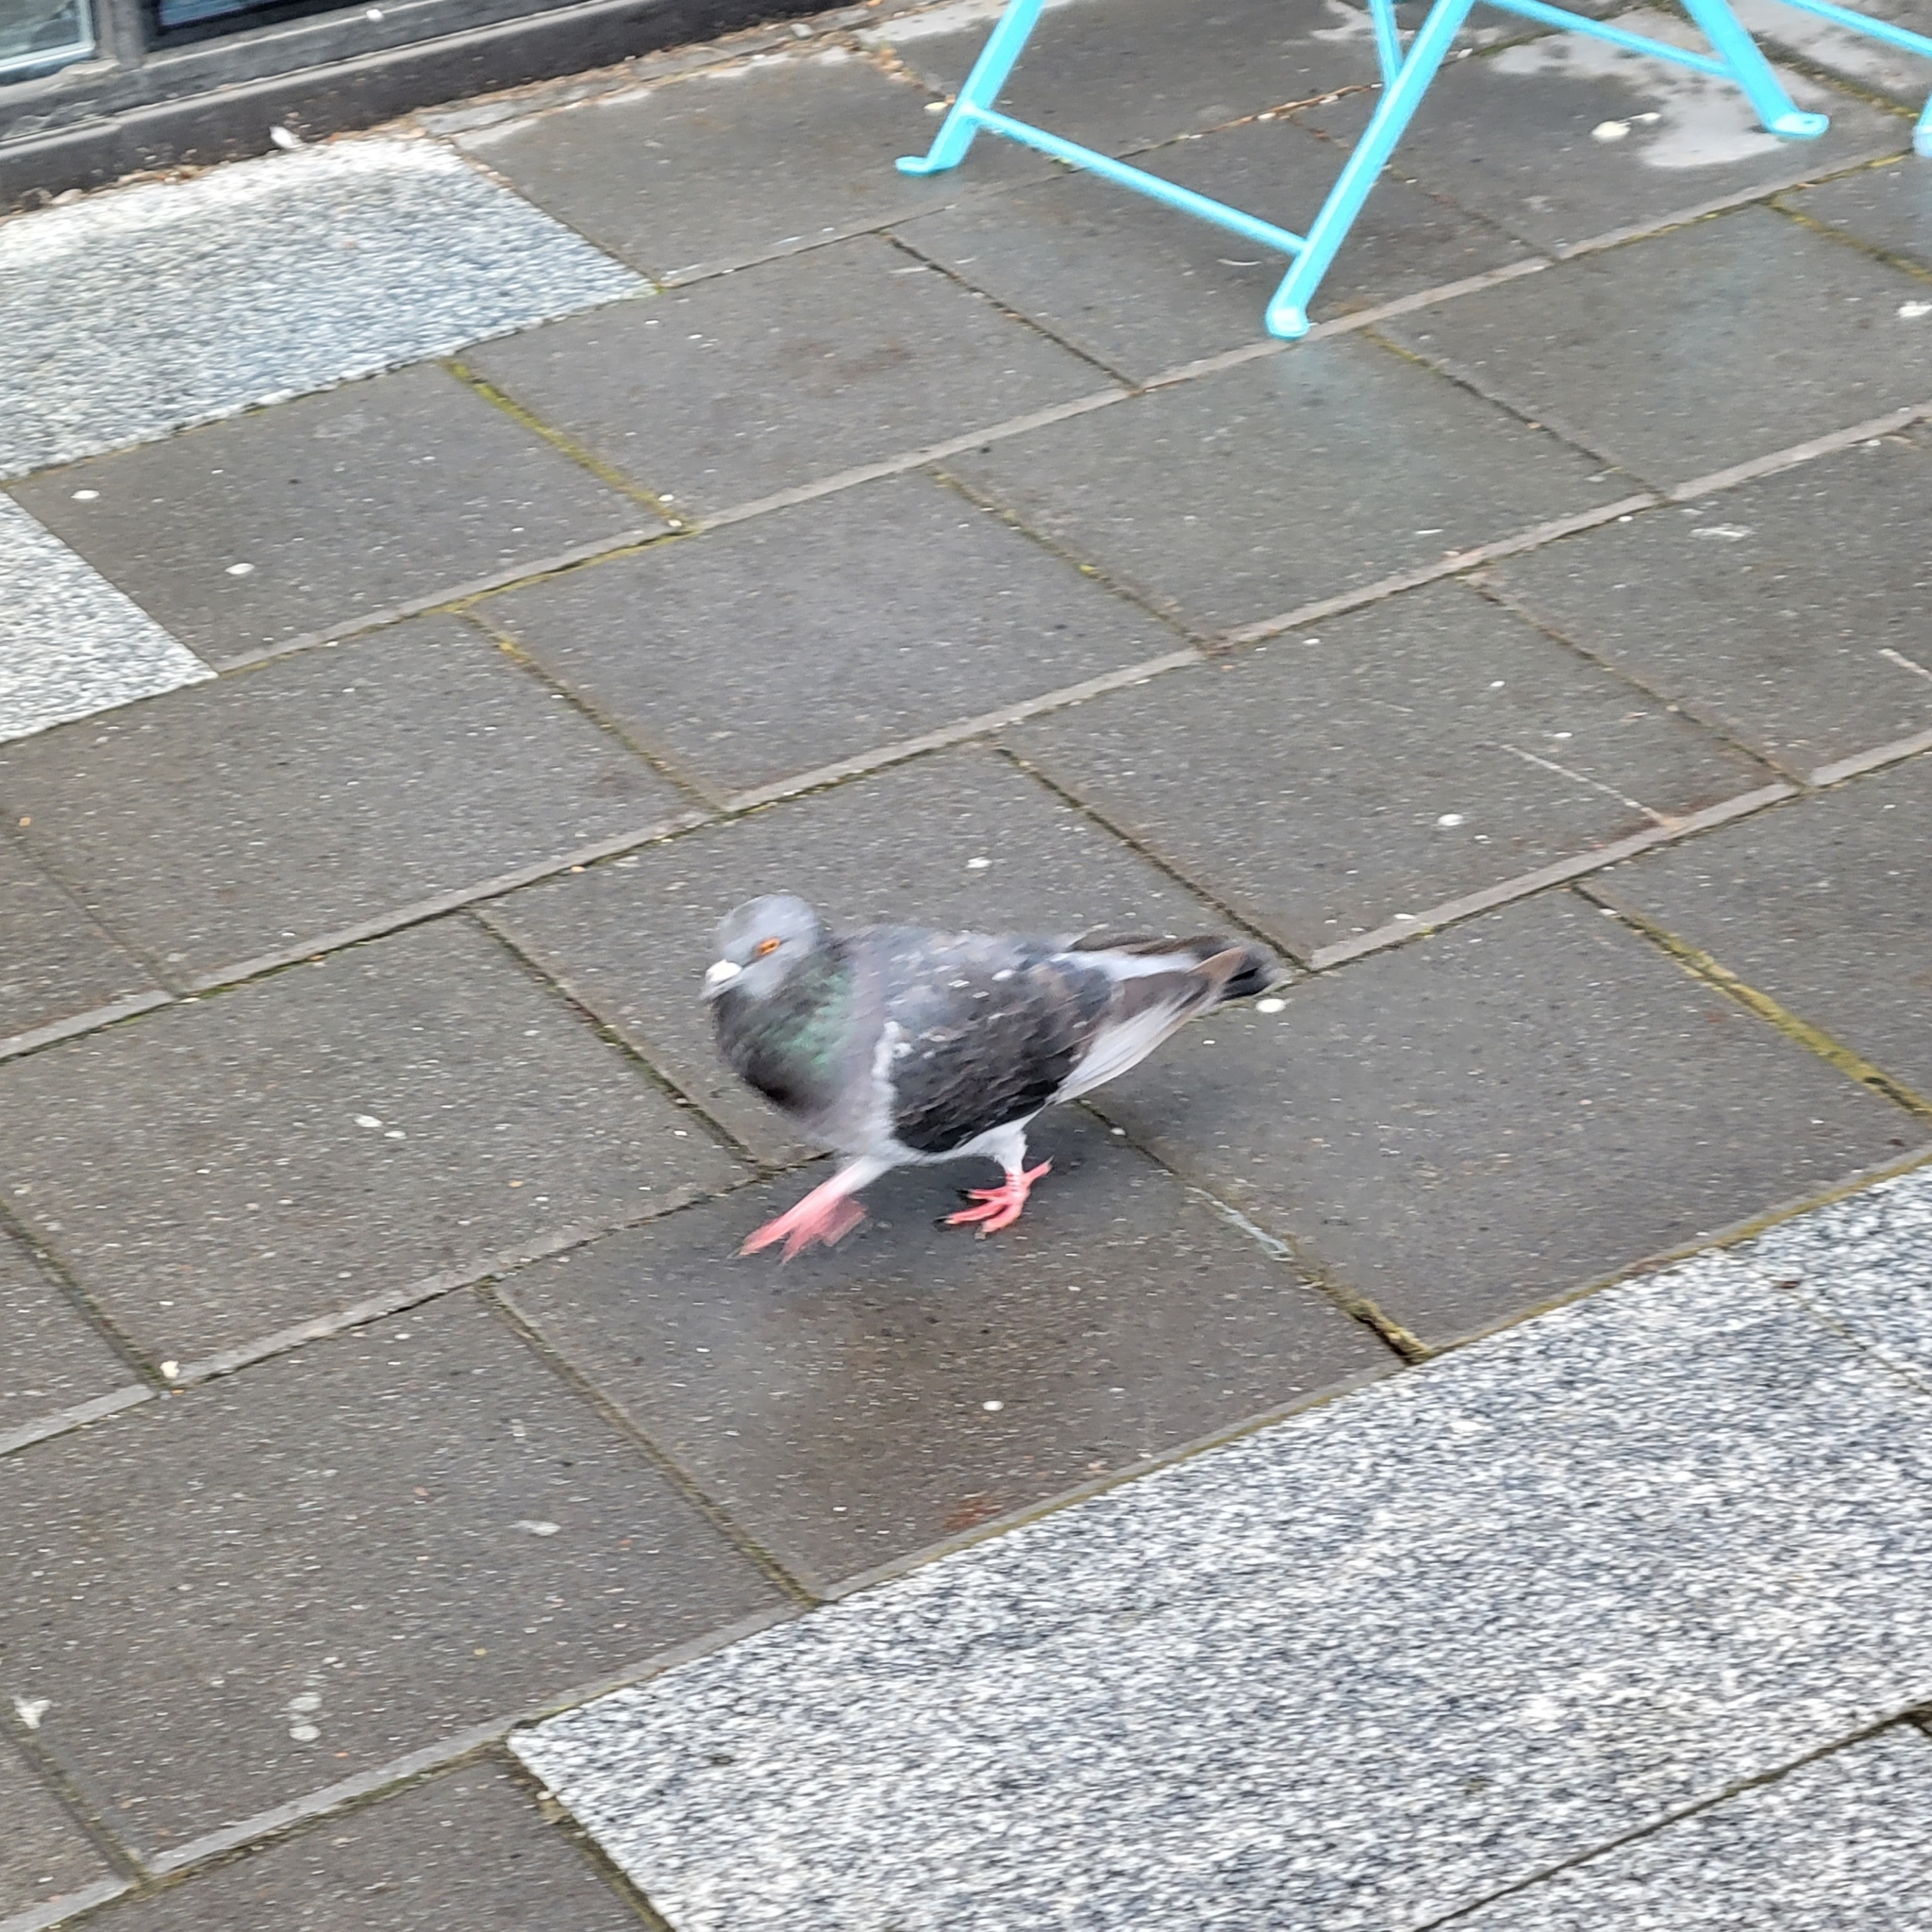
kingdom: Animalia
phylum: Chordata
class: Aves
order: Columbiformes
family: Columbidae
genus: Columba
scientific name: Columba livia
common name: Rock pigeon
